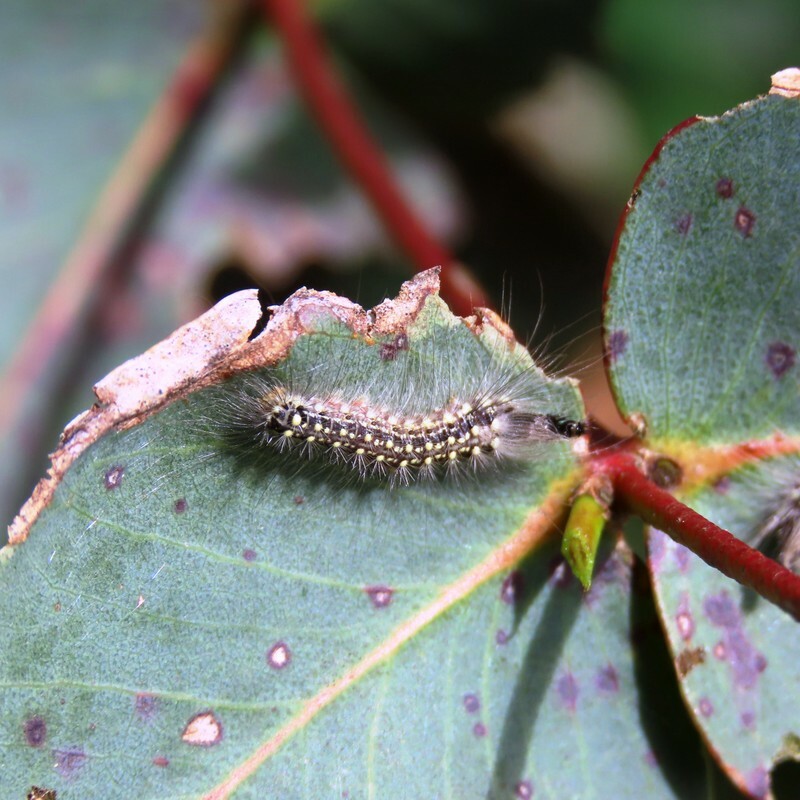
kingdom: Animalia
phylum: Arthropoda
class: Insecta
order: Lepidoptera
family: Nolidae
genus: Uraba
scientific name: Uraba lugens
